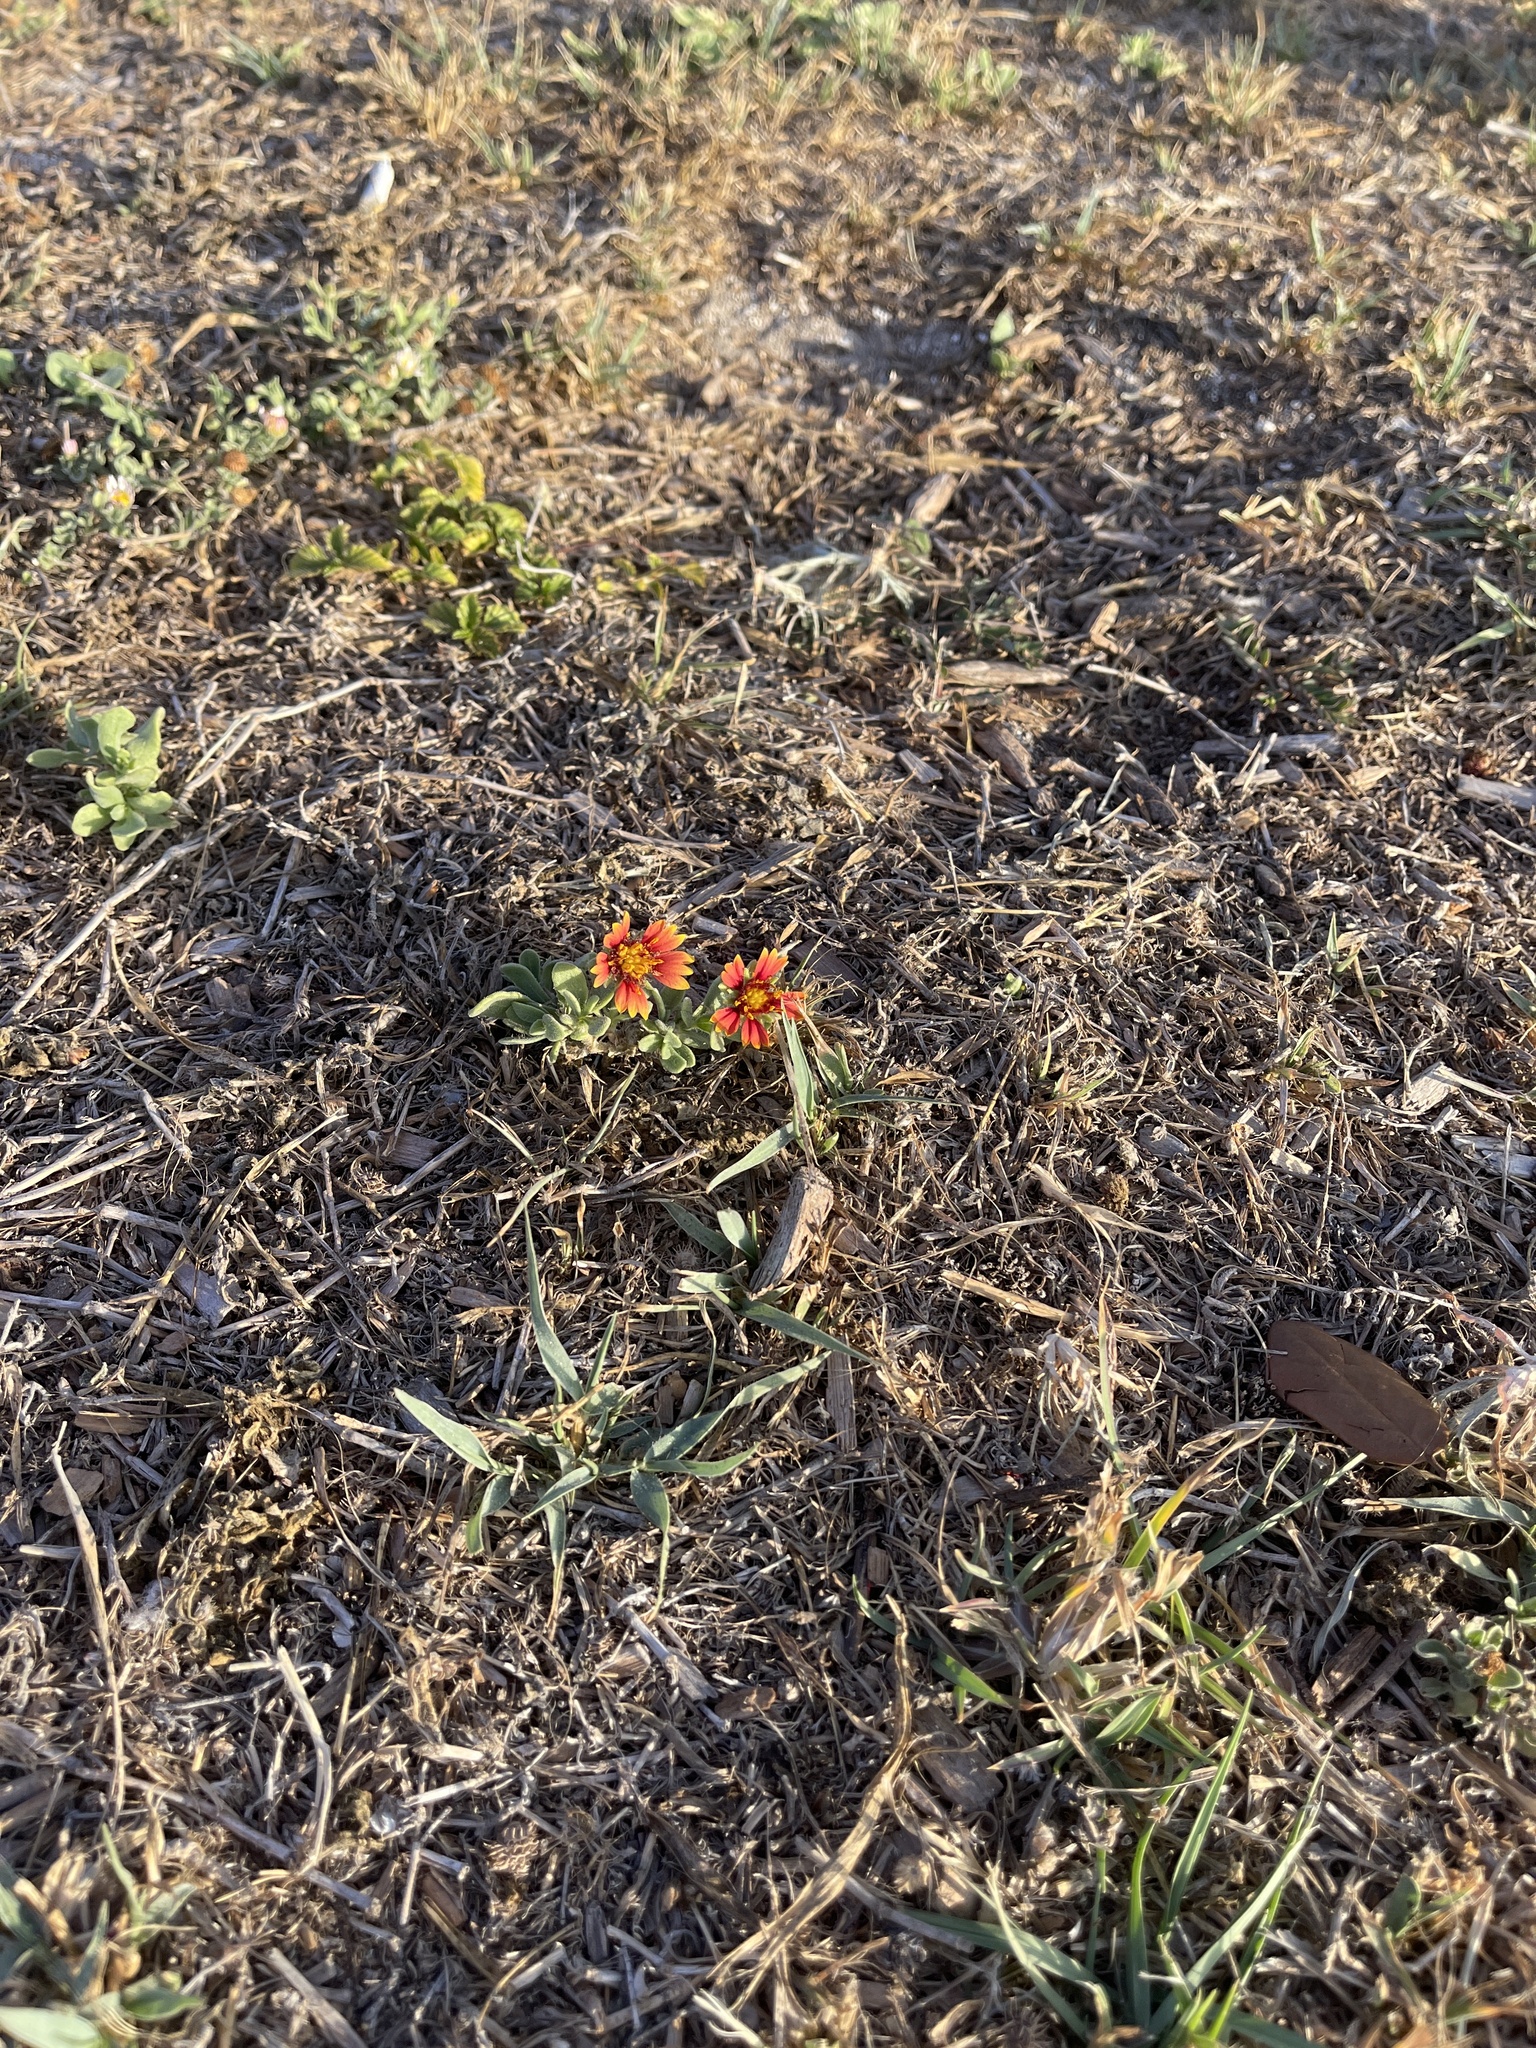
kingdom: Plantae
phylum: Tracheophyta
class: Magnoliopsida
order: Asterales
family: Asteraceae
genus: Gaillardia
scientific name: Gaillardia pulchella
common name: Firewheel
